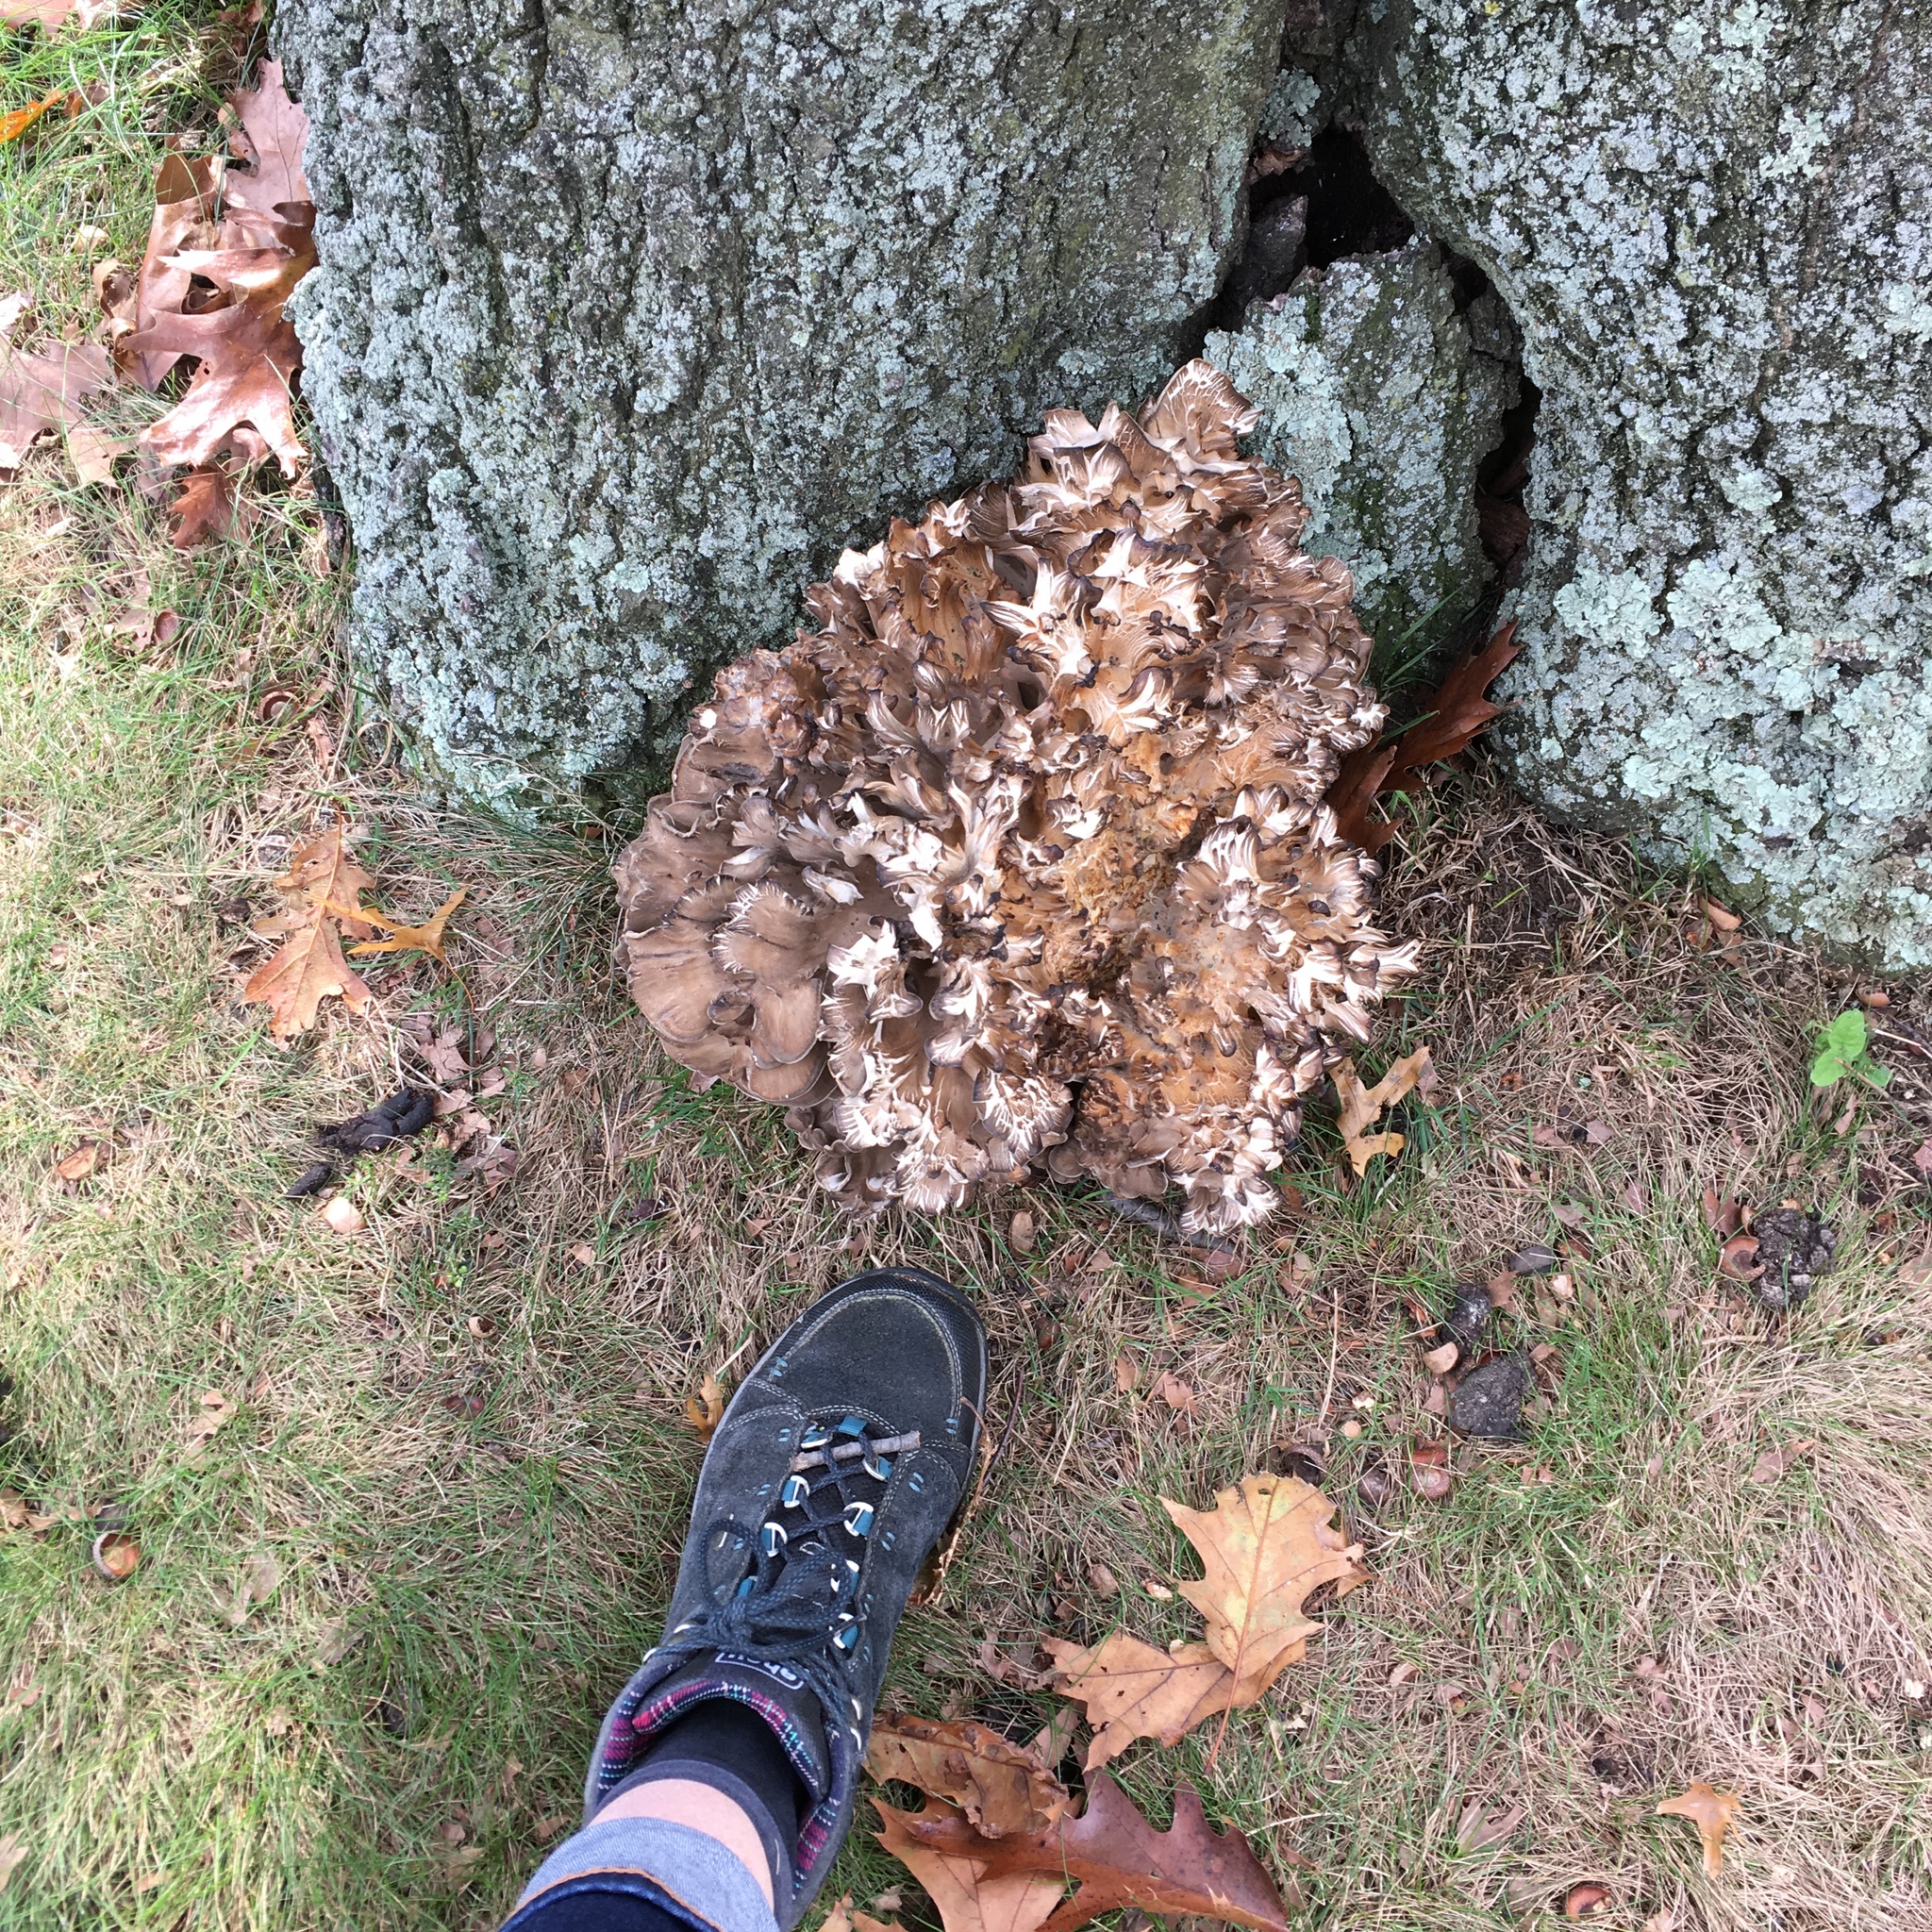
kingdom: Fungi
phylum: Basidiomycota
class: Agaricomycetes
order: Polyporales
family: Grifolaceae
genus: Grifola
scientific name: Grifola frondosa
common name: Hen of the woods
